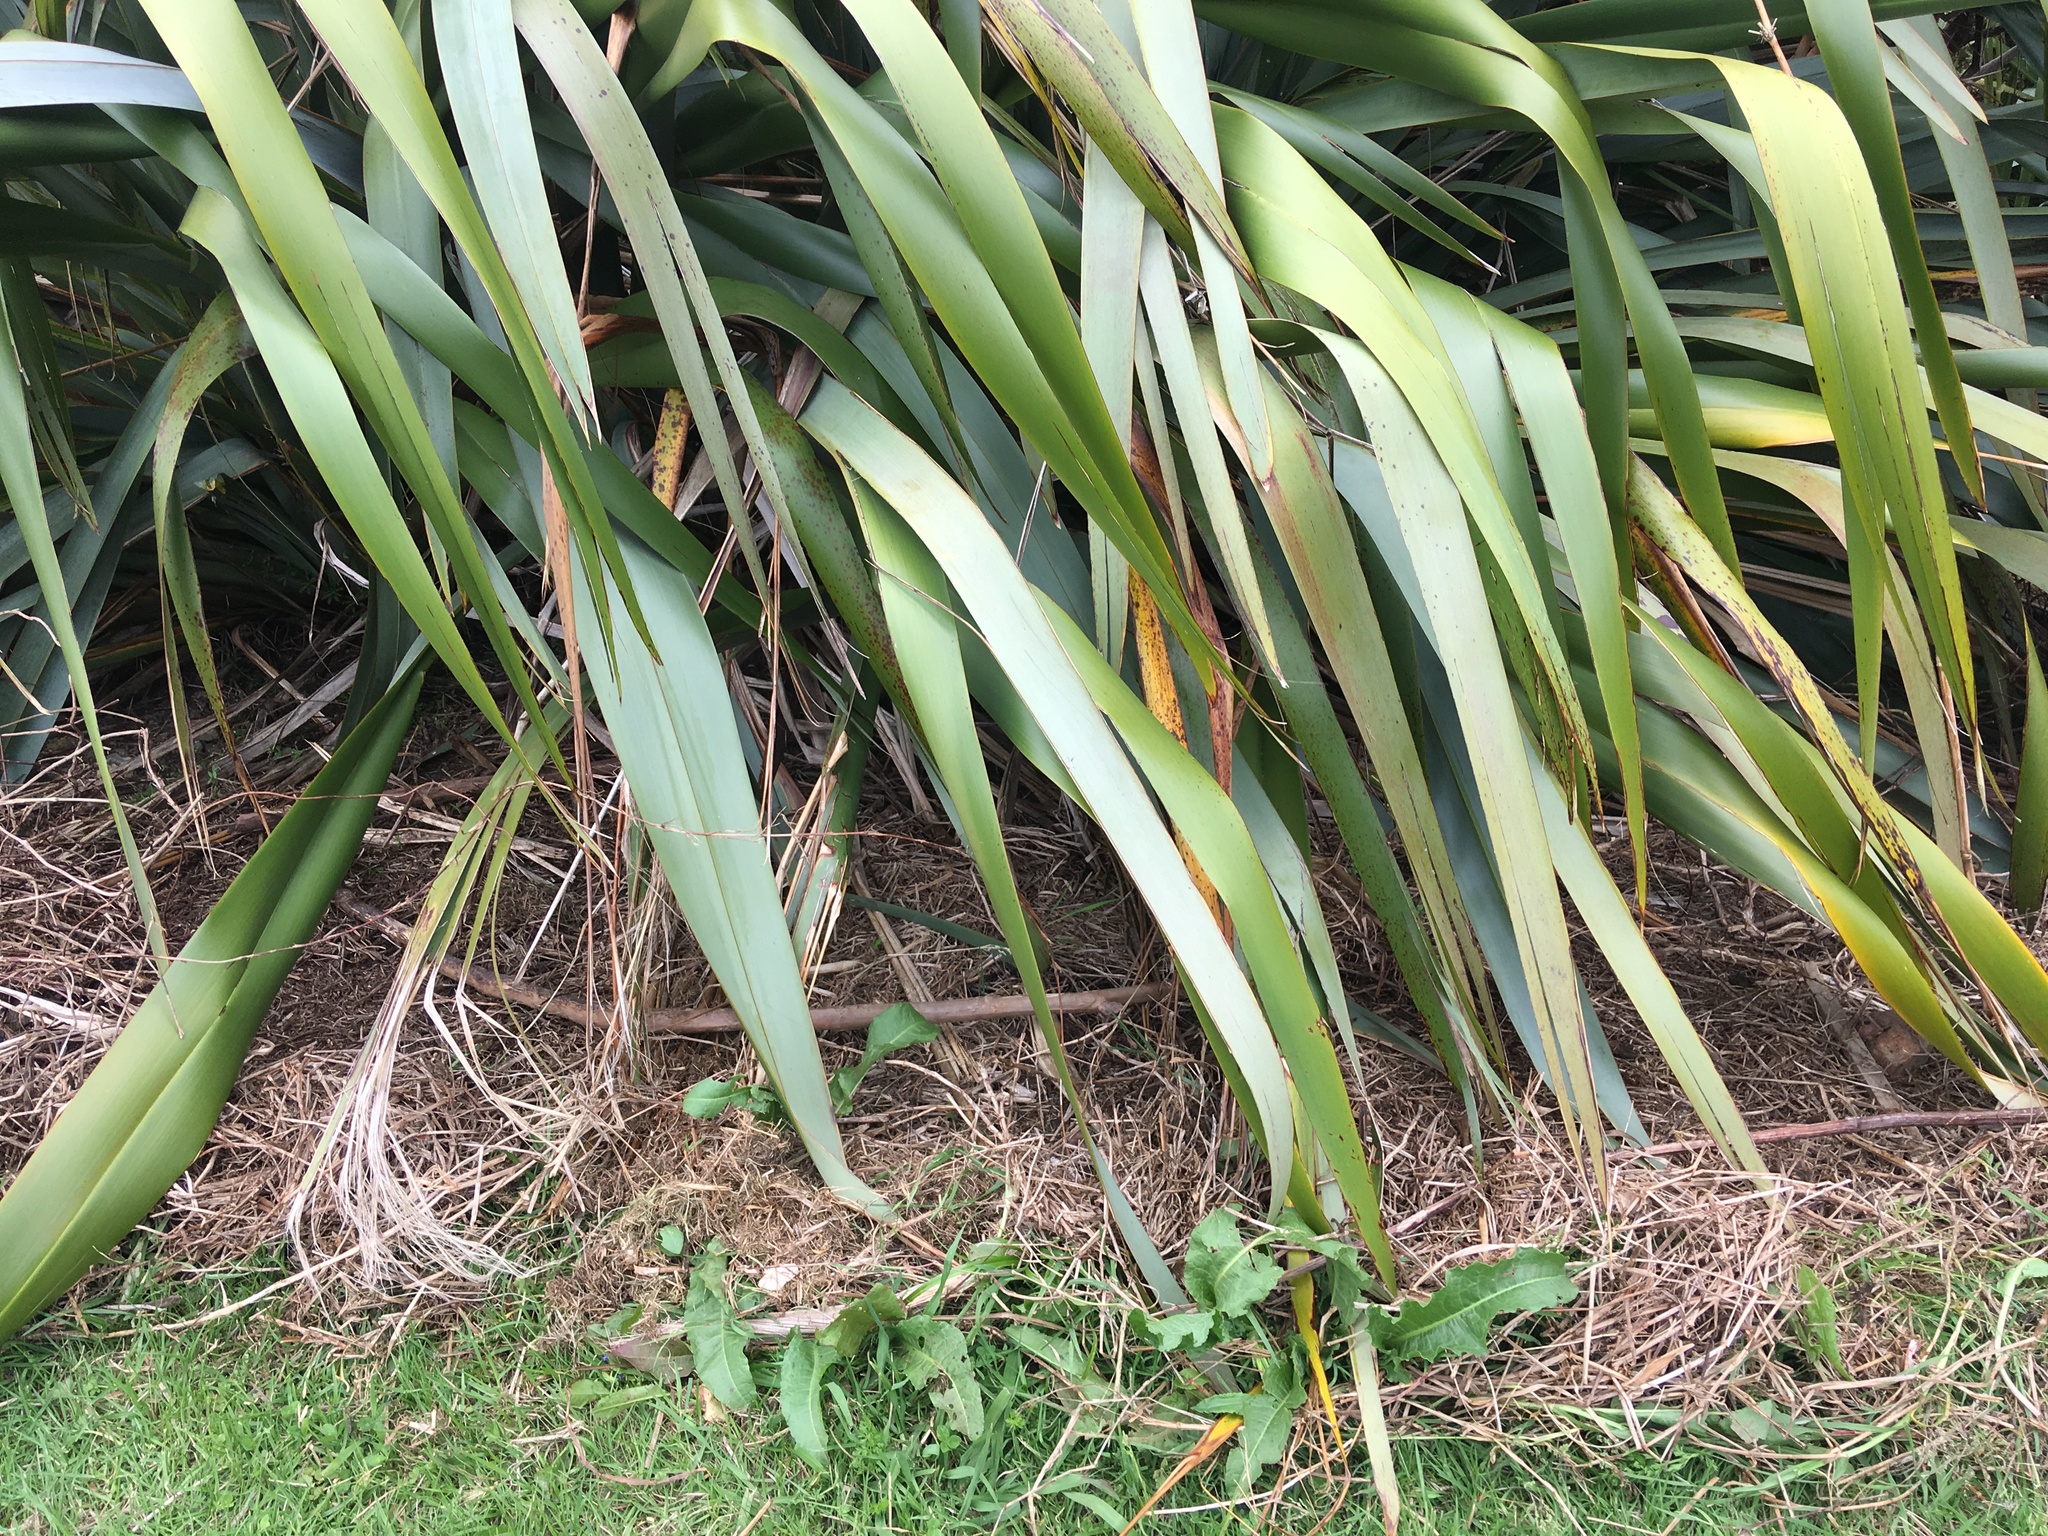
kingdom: Plantae
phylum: Tracheophyta
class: Magnoliopsida
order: Caryophyllales
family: Polygonaceae
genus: Rumex
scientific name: Rumex obtusifolius
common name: Bitter dock
